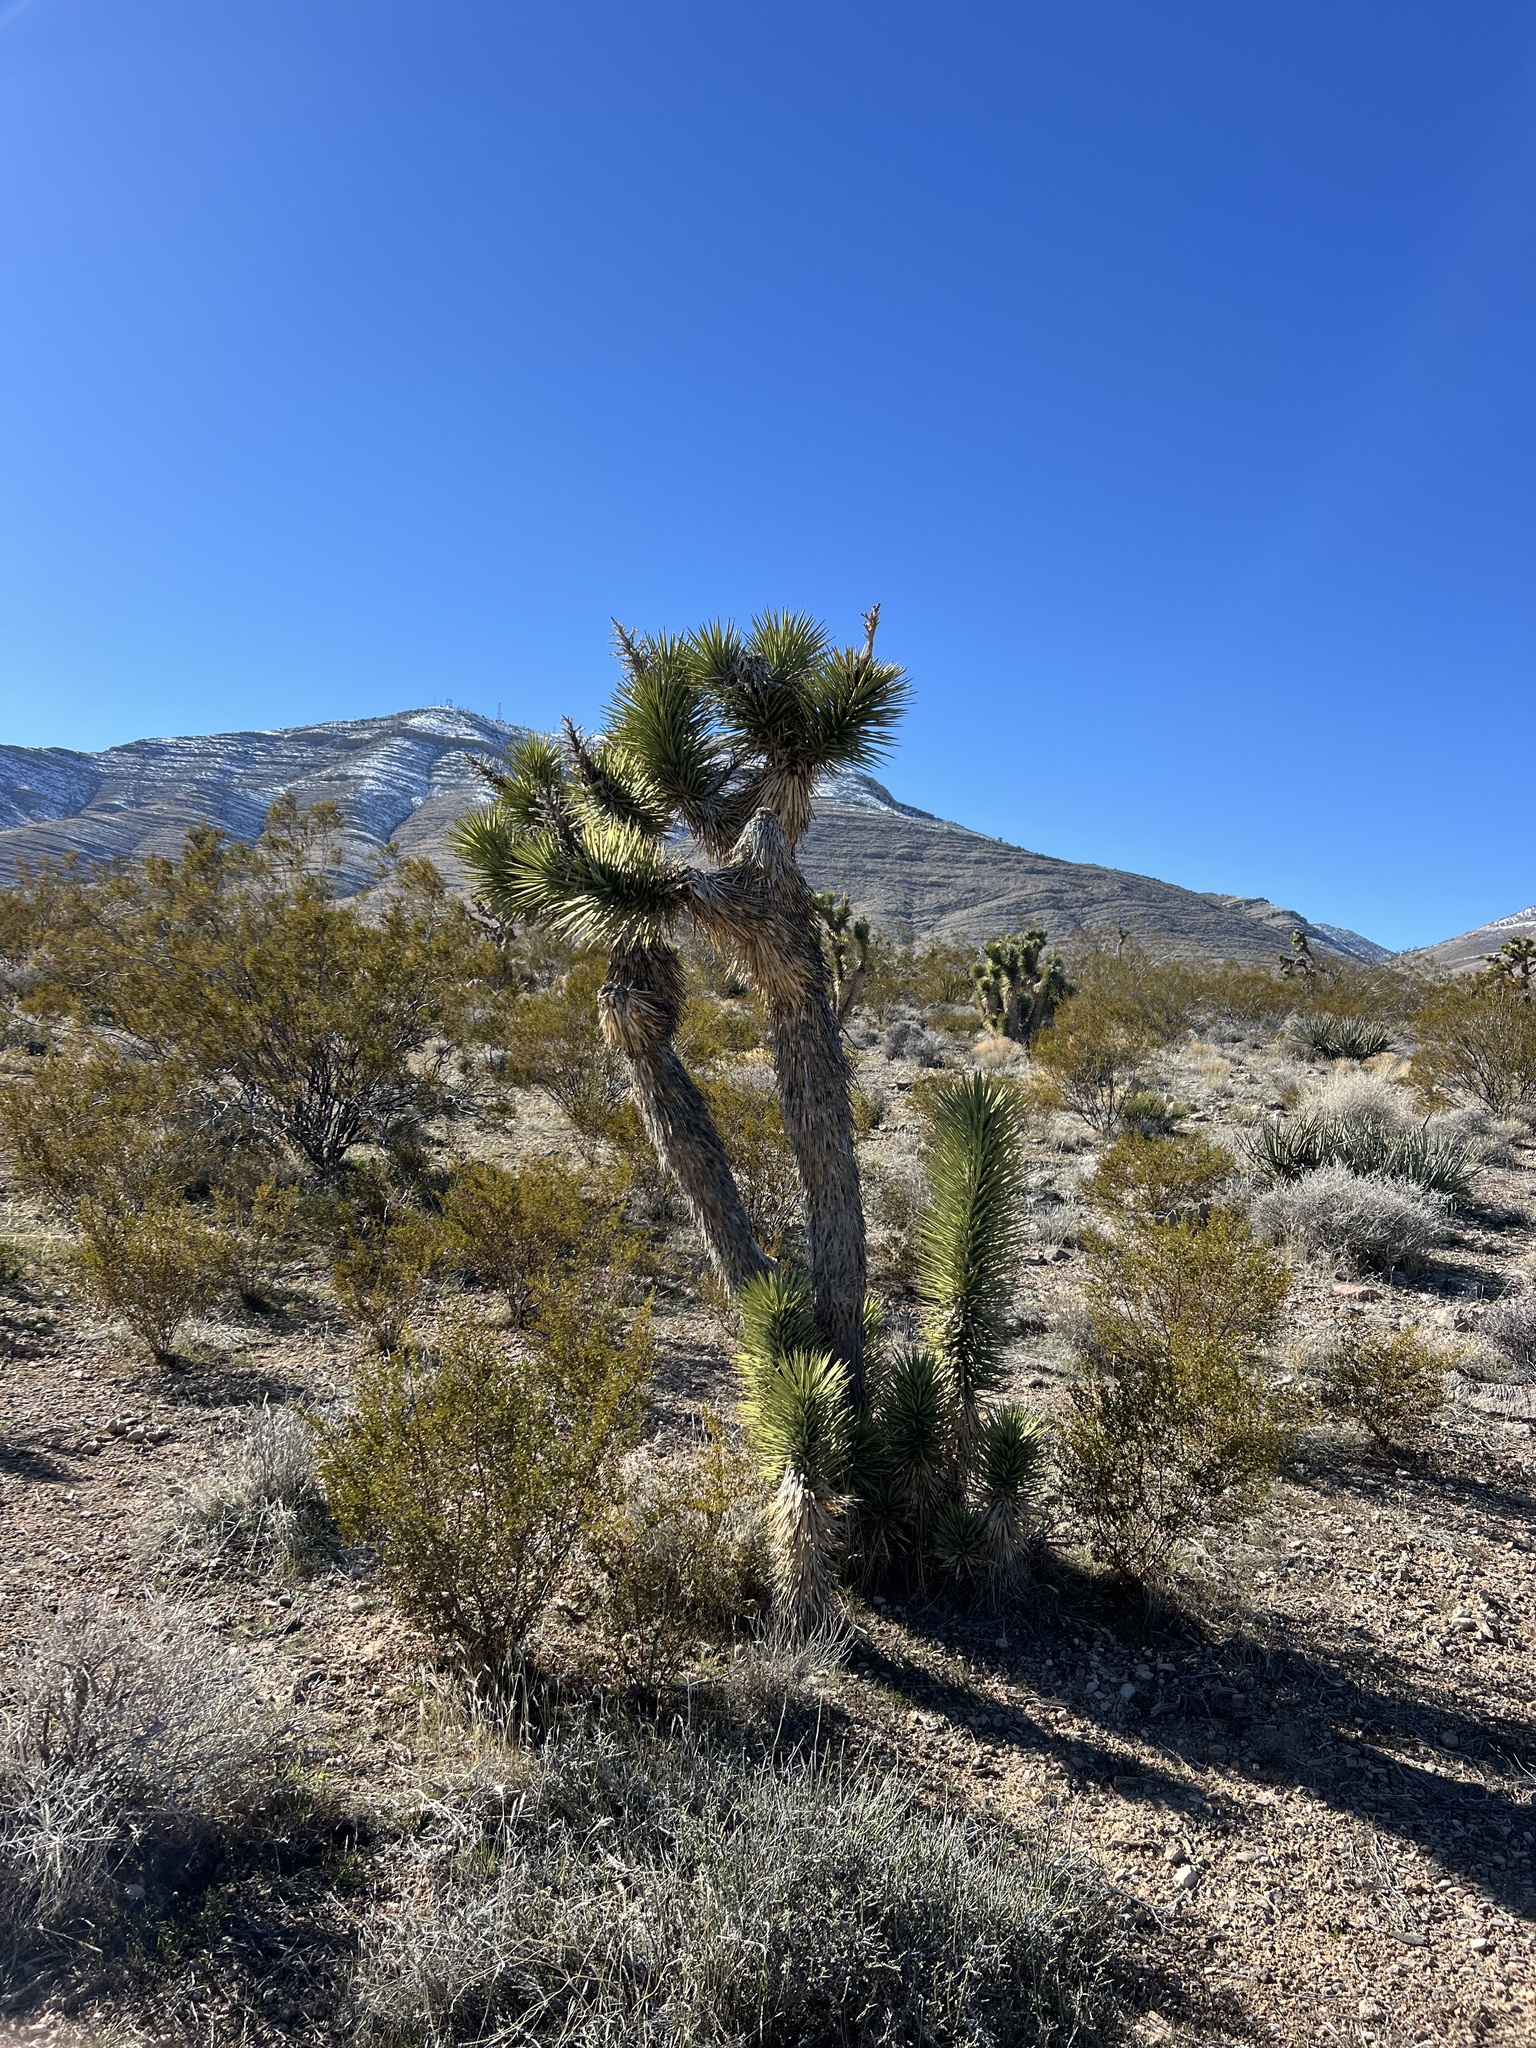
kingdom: Plantae
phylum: Tracheophyta
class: Liliopsida
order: Asparagales
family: Asparagaceae
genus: Yucca
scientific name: Yucca brevifolia
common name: Joshua tree
